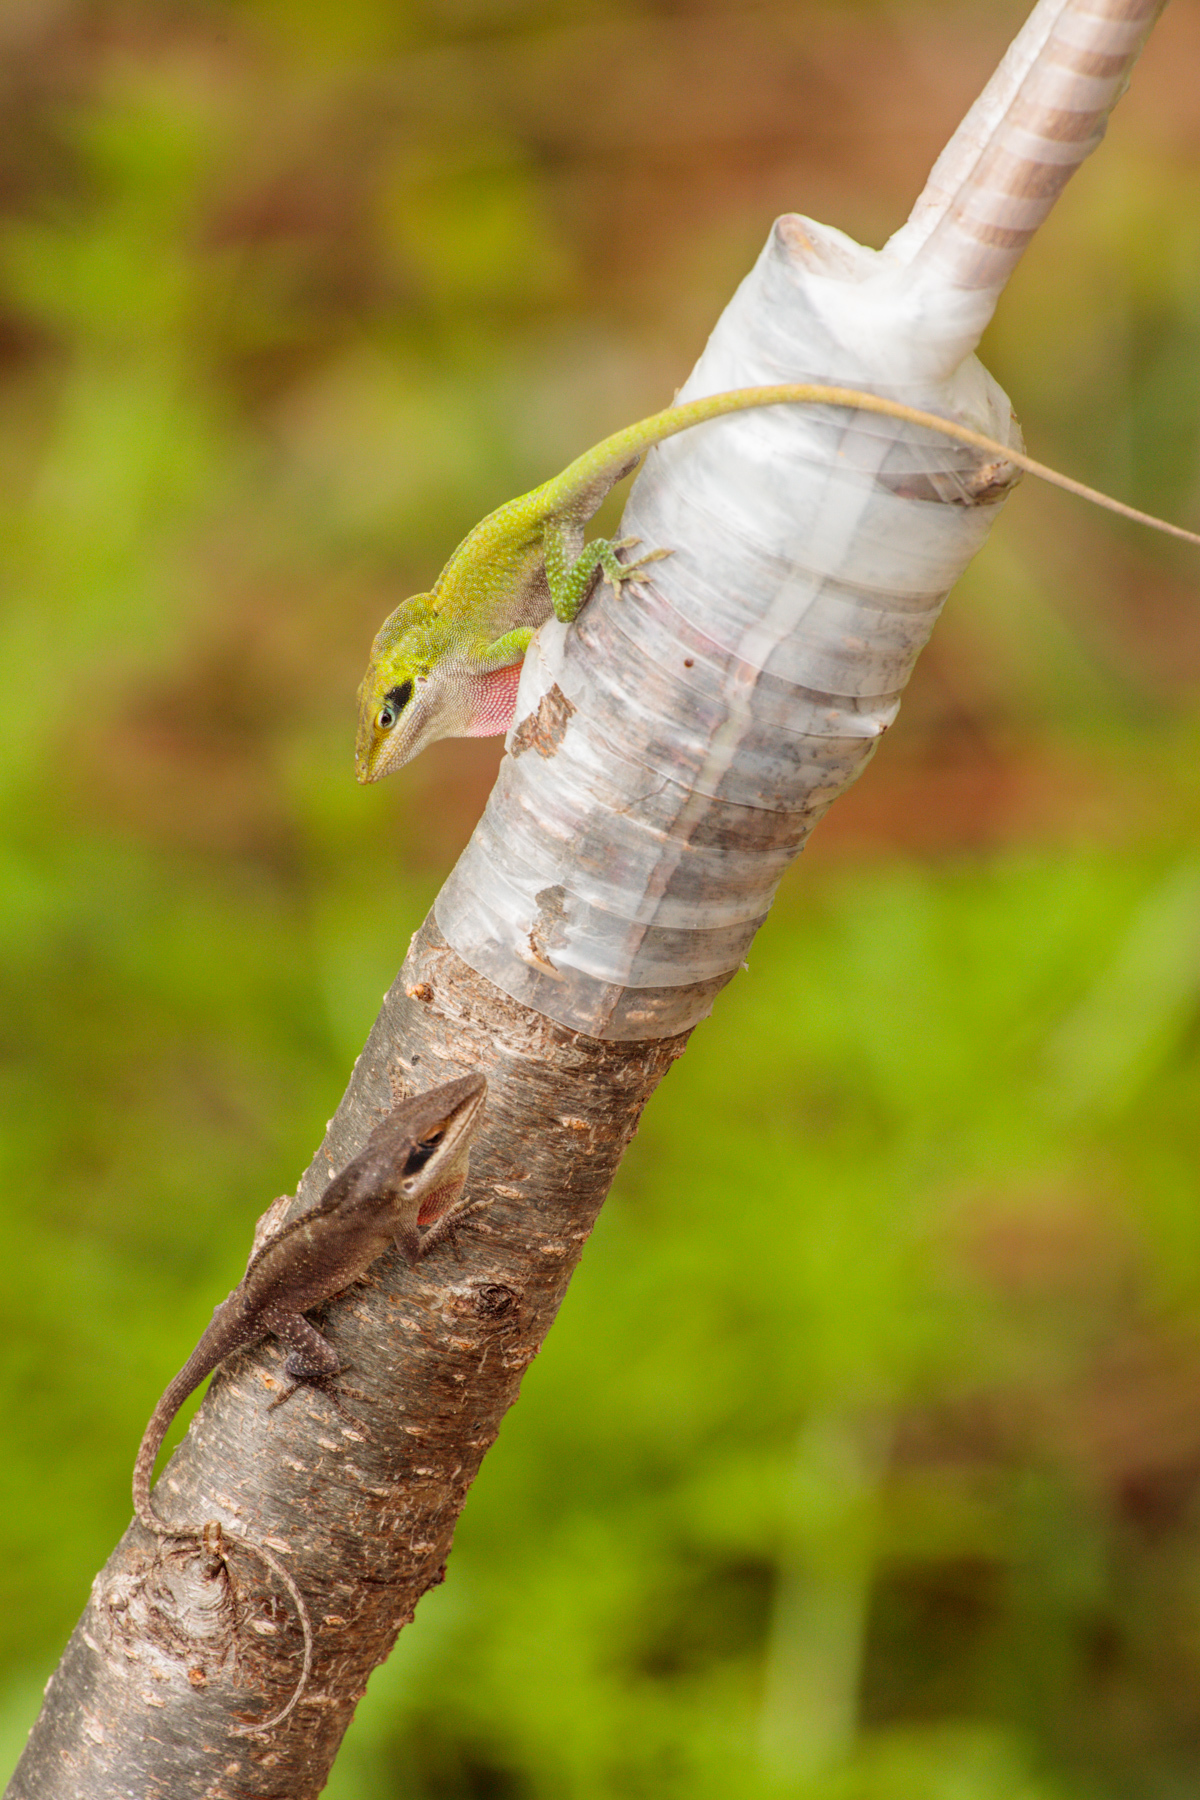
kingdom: Animalia
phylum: Chordata
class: Squamata
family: Dactyloidae
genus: Anolis
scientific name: Anolis carolinensis
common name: Green anole
